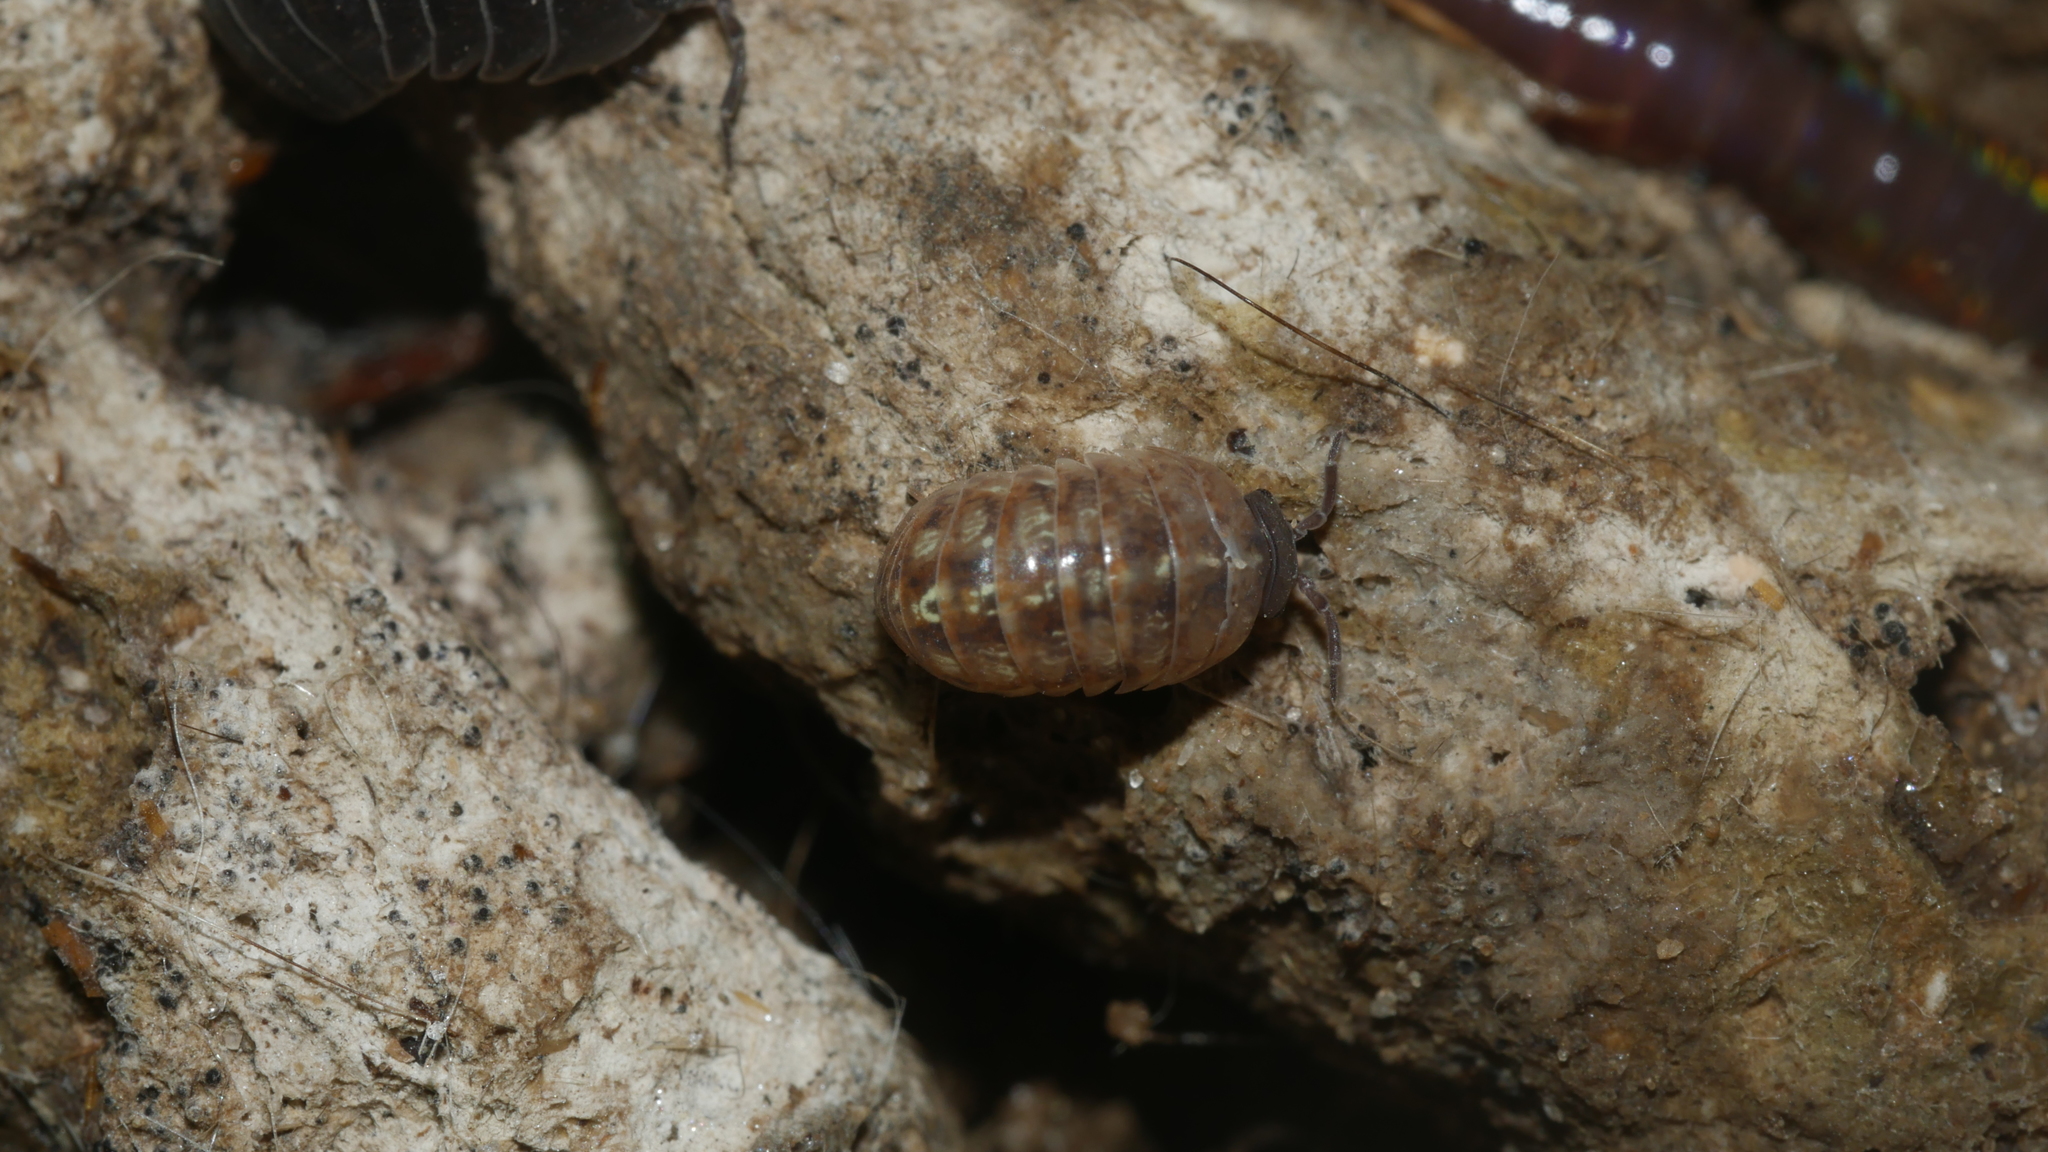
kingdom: Animalia
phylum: Arthropoda
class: Malacostraca
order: Isopoda
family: Armadillidiidae
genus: Armadillidium
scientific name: Armadillidium vulgare
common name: Common pill woodlouse
